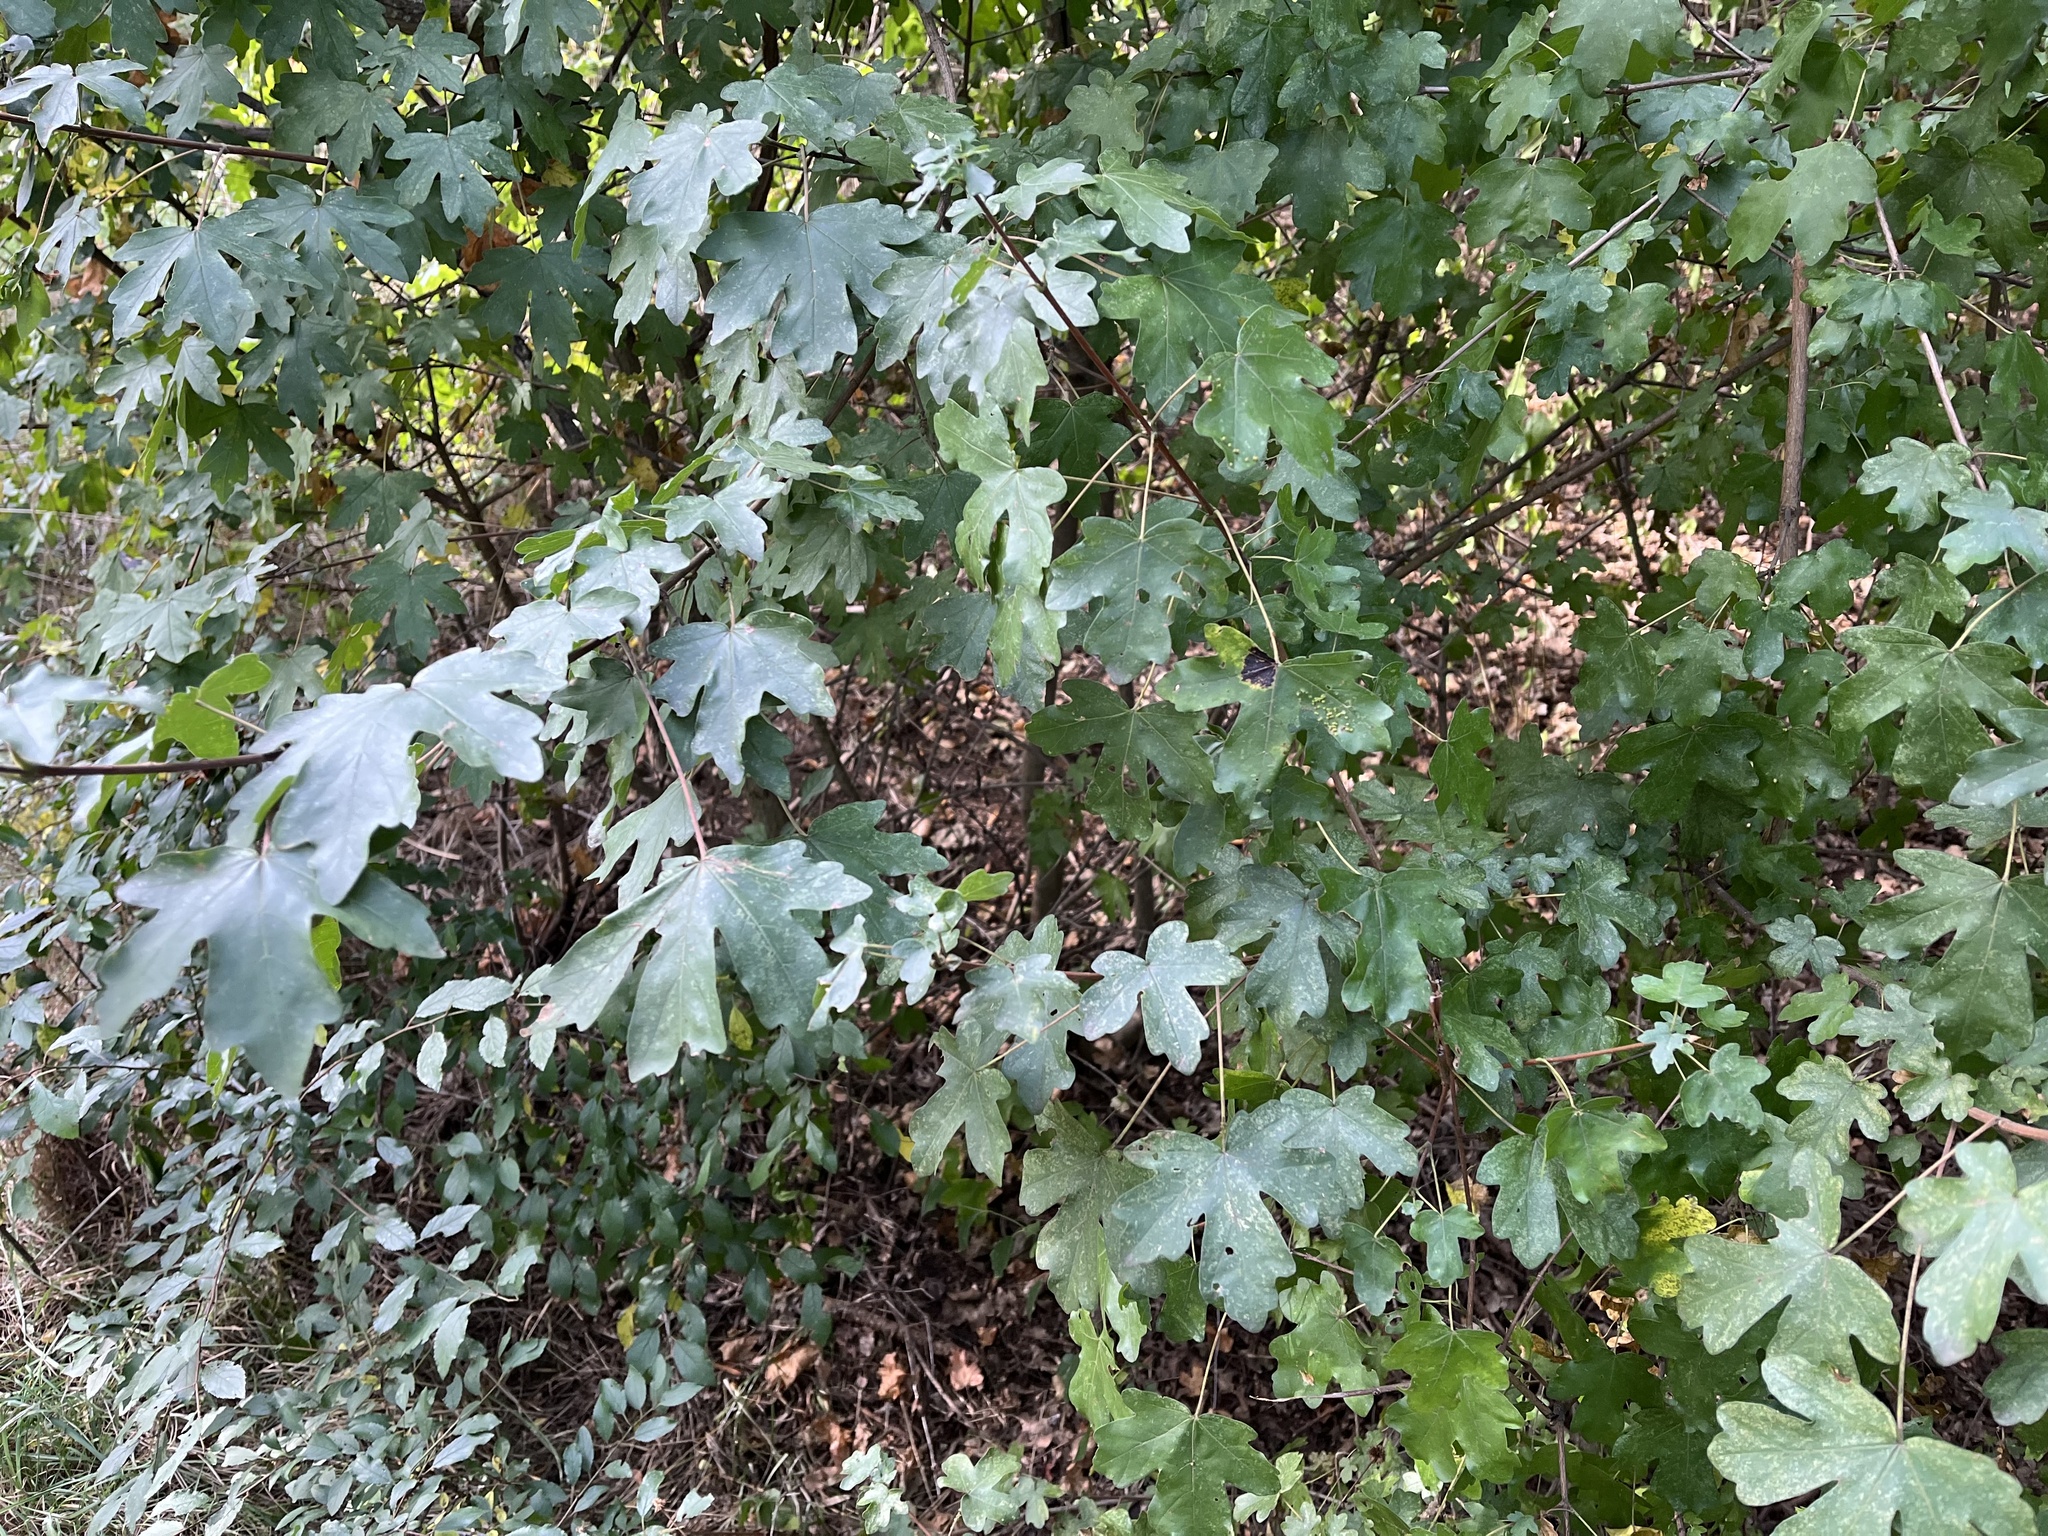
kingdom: Plantae
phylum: Tracheophyta
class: Magnoliopsida
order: Sapindales
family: Sapindaceae
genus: Acer
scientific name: Acer campestre
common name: Field maple
